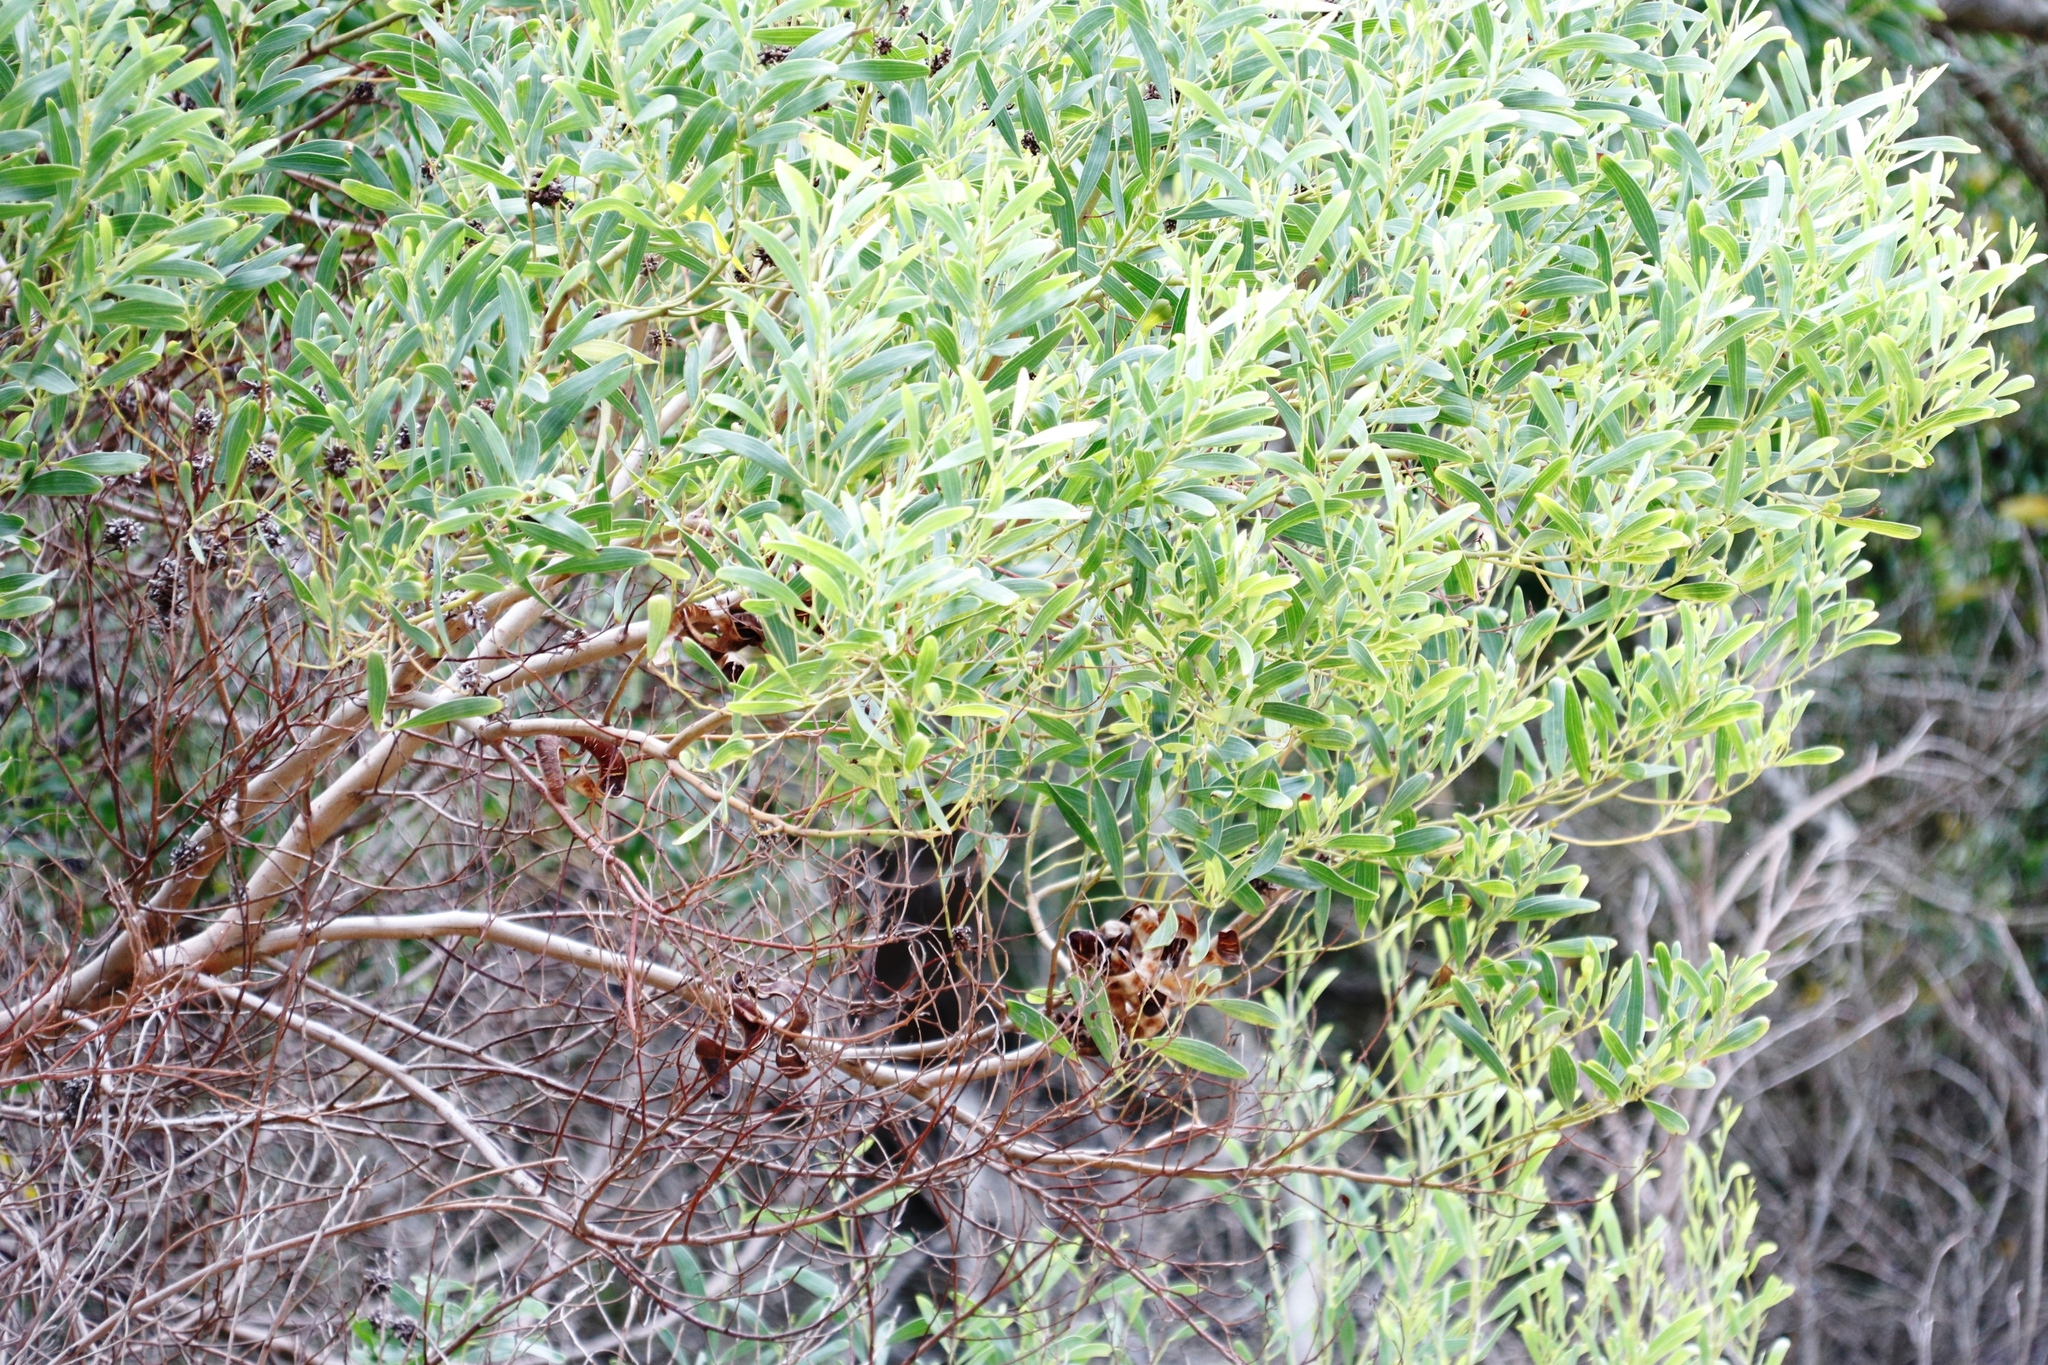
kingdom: Plantae
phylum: Tracheophyta
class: Magnoliopsida
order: Fabales
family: Fabaceae
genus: Acacia
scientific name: Acacia cyclops
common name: Coastal wattle
